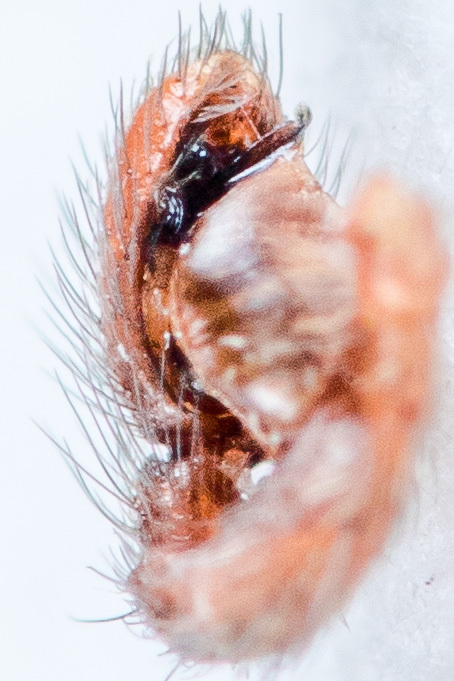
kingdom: Animalia
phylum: Arthropoda
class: Arachnida
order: Araneae
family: Salticidae
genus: Phlegra
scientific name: Phlegra fasciata
